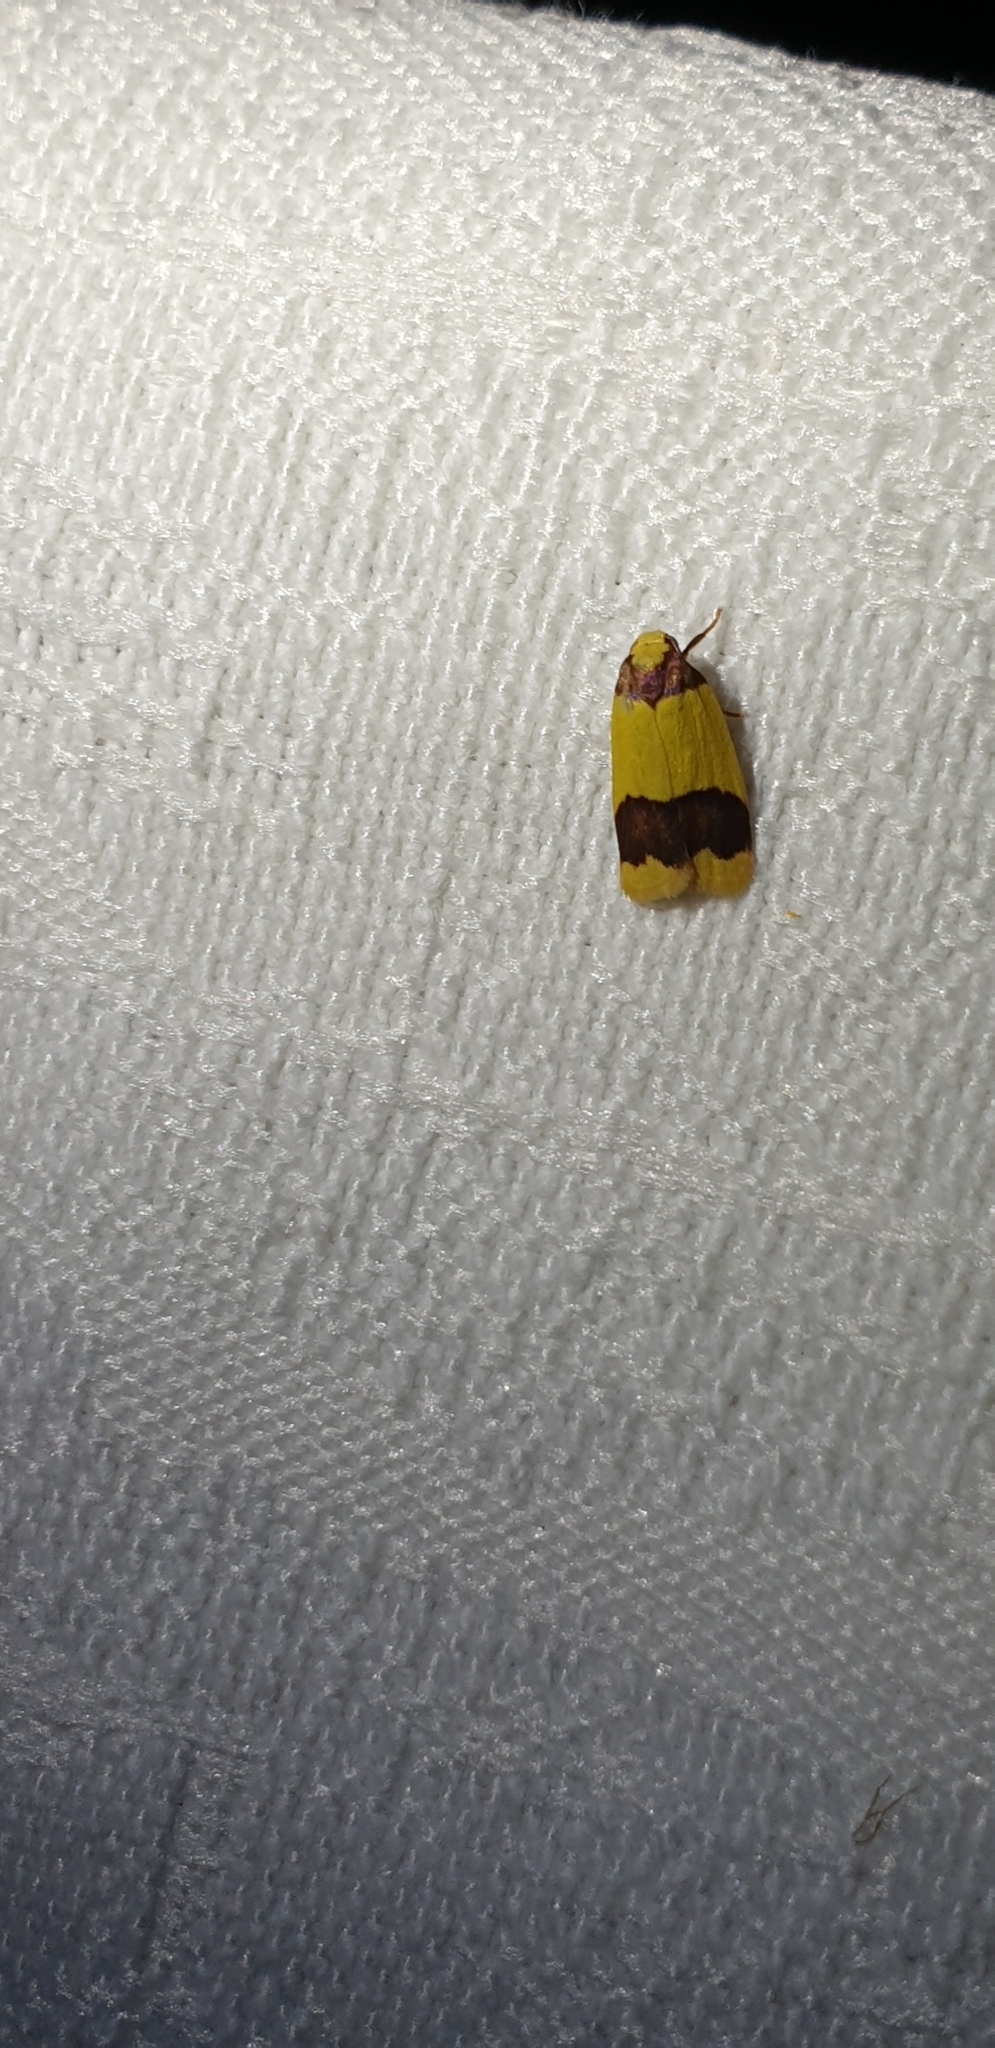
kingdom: Animalia
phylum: Arthropoda
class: Insecta
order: Lepidoptera
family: Erebidae
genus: Heterallactis
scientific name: Heterallactis microchrysa
